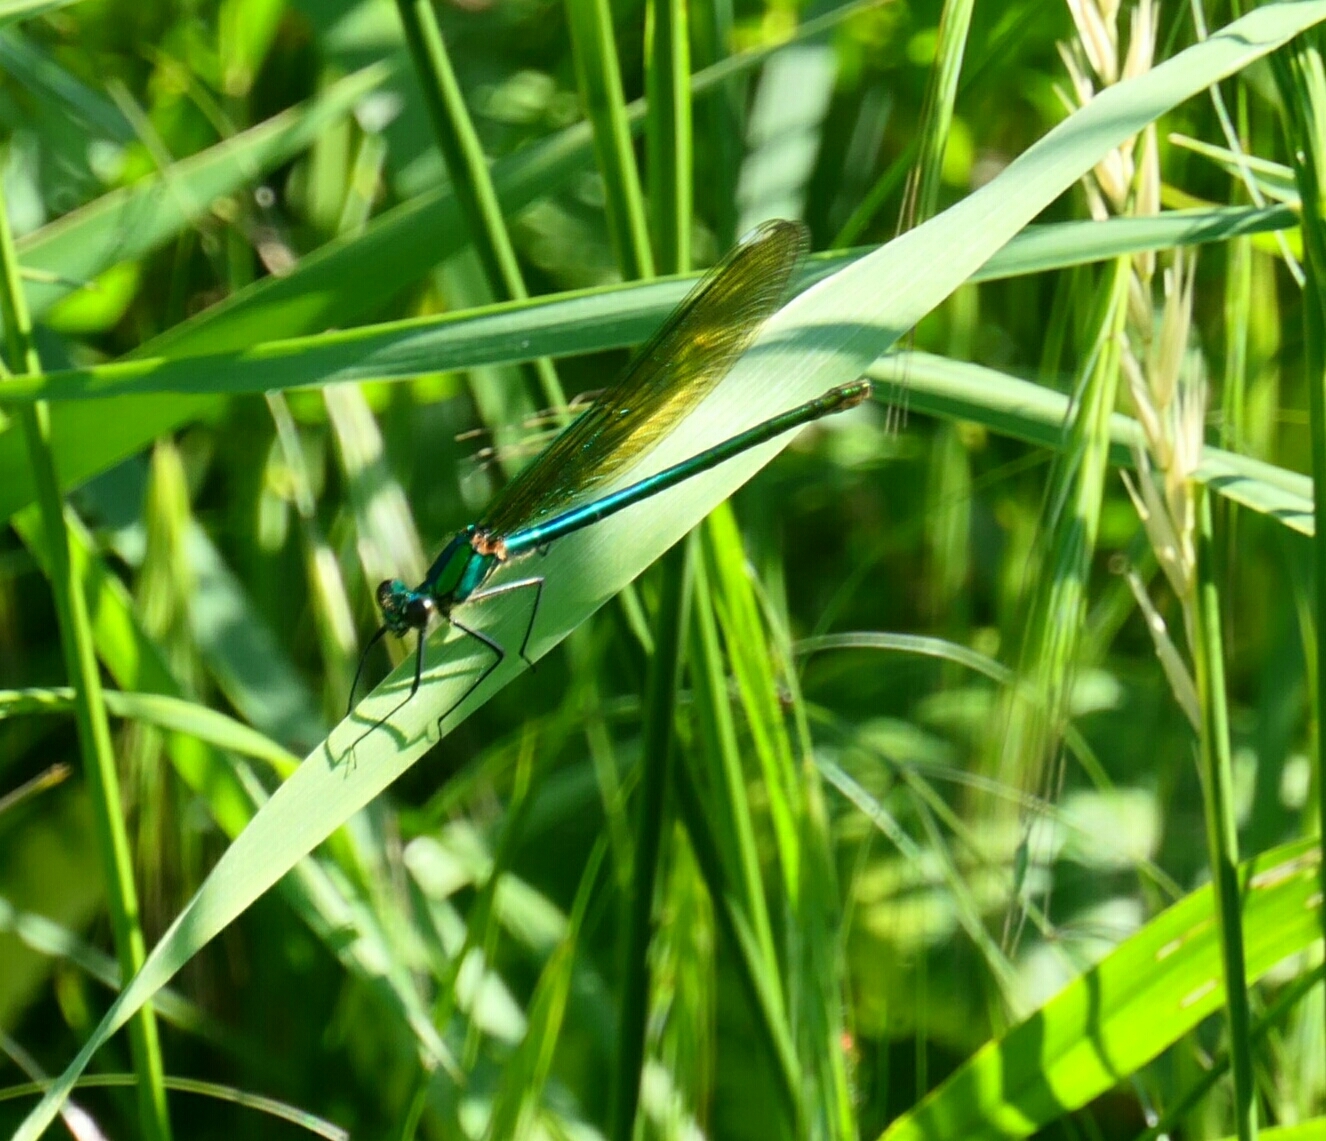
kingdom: Animalia
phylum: Arthropoda
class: Insecta
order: Odonata
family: Calopterygidae
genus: Calopteryx
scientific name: Calopteryx splendens
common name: Banded demoiselle
